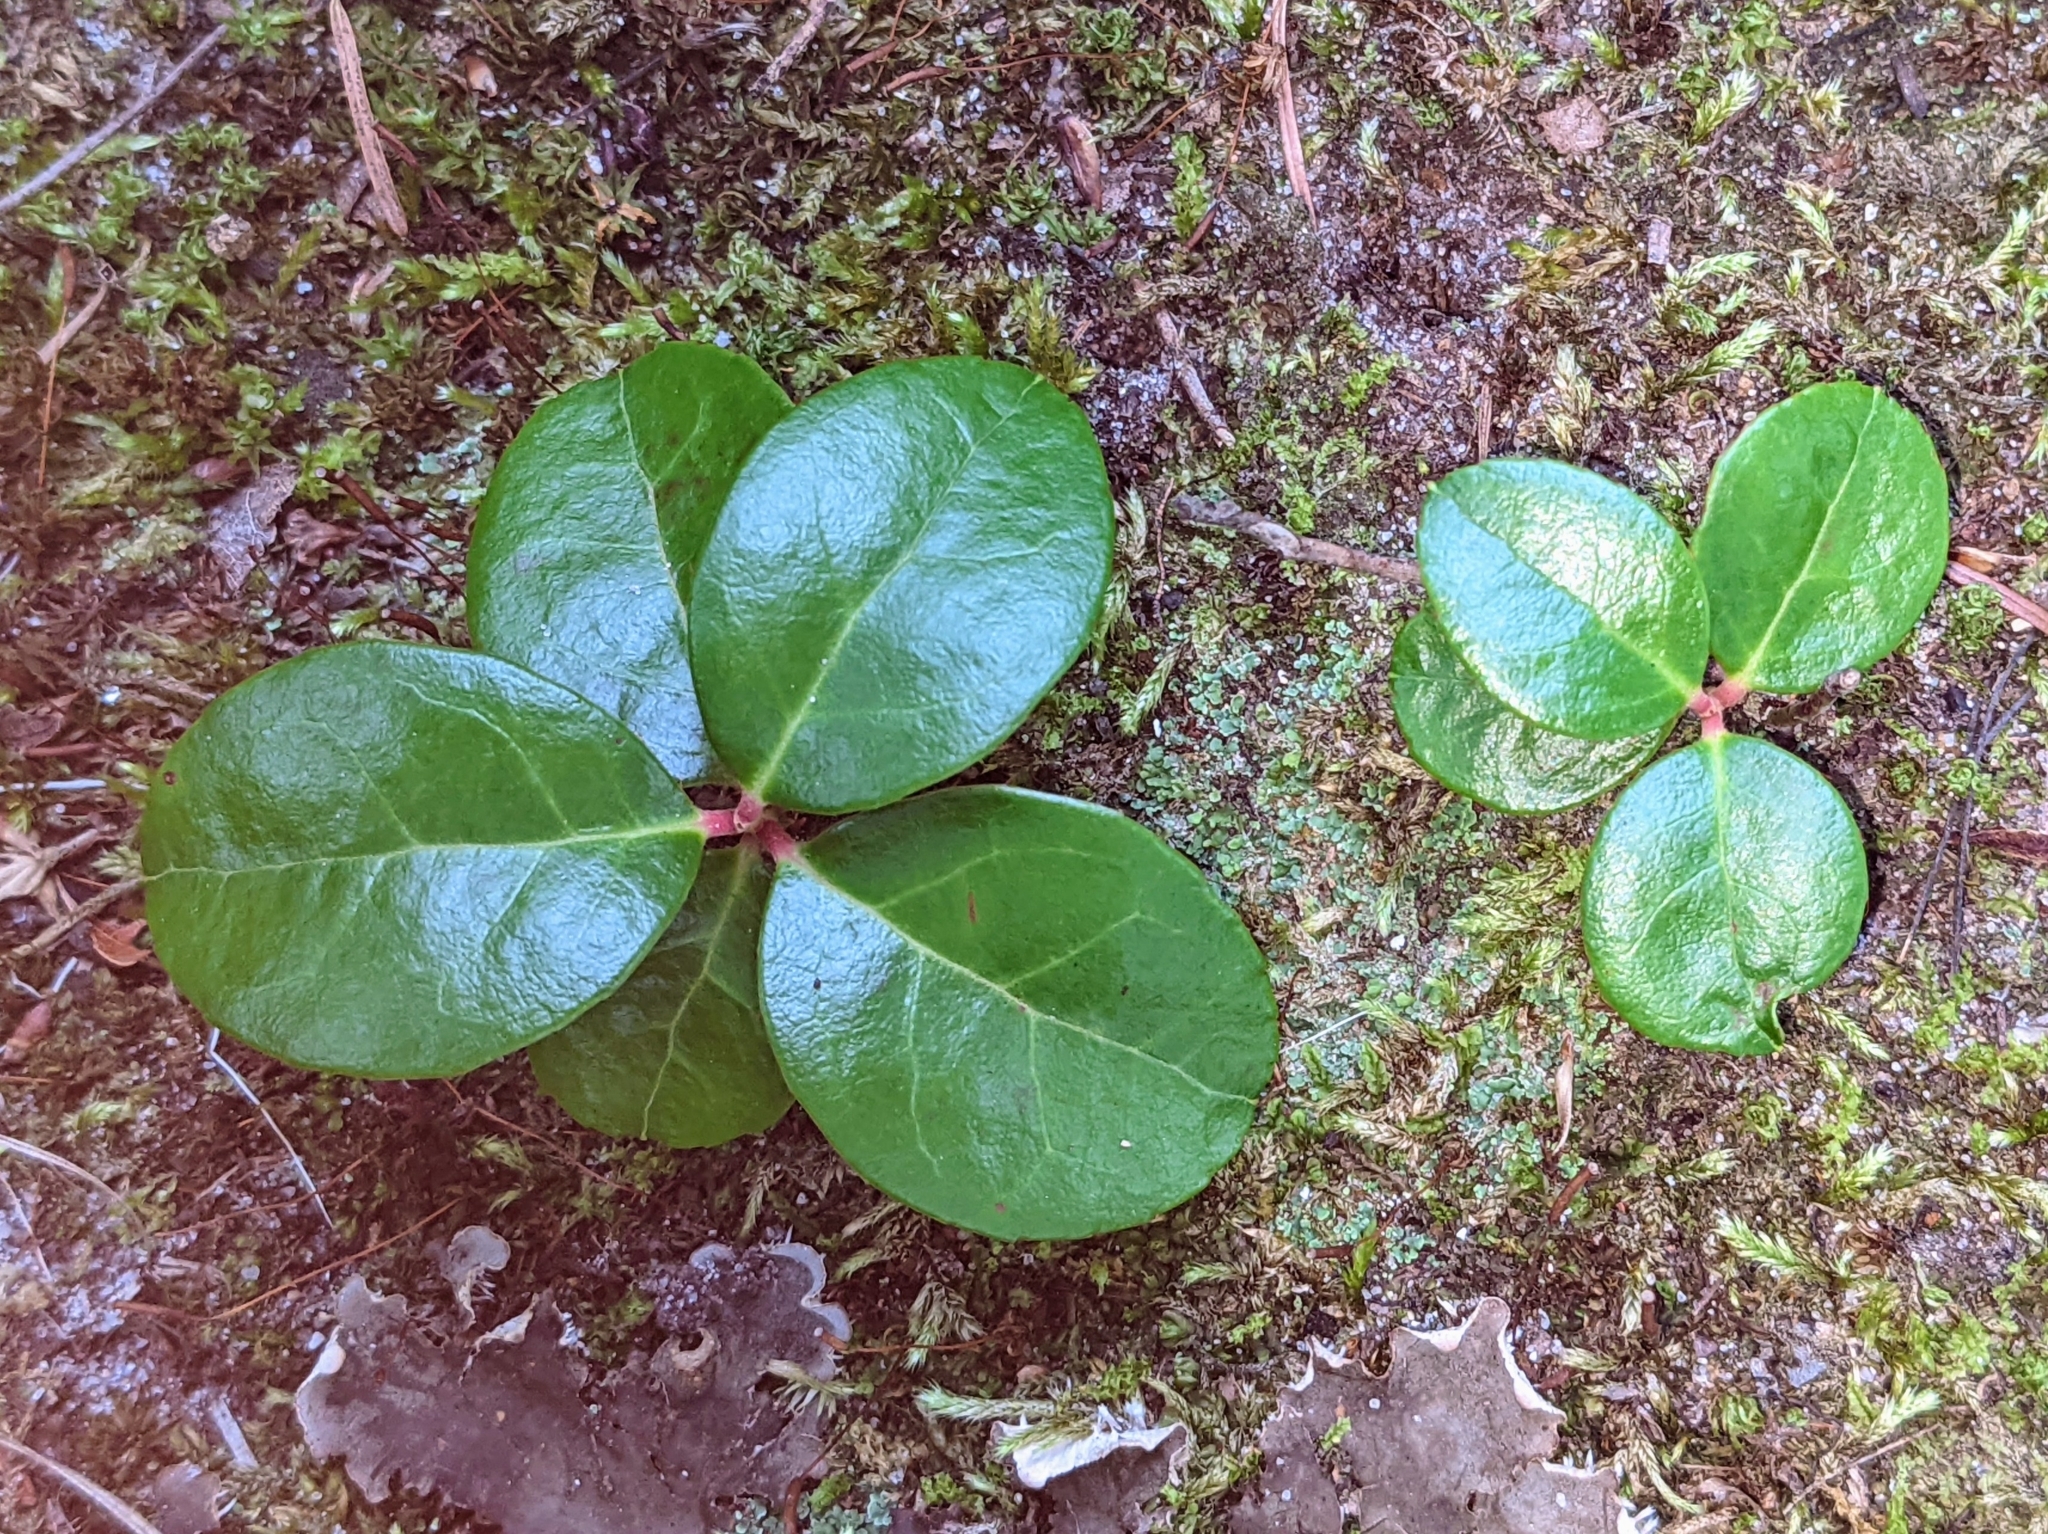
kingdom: Plantae
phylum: Tracheophyta
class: Magnoliopsida
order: Ericales
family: Ericaceae
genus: Gaultheria
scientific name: Gaultheria procumbens
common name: Checkerberry
